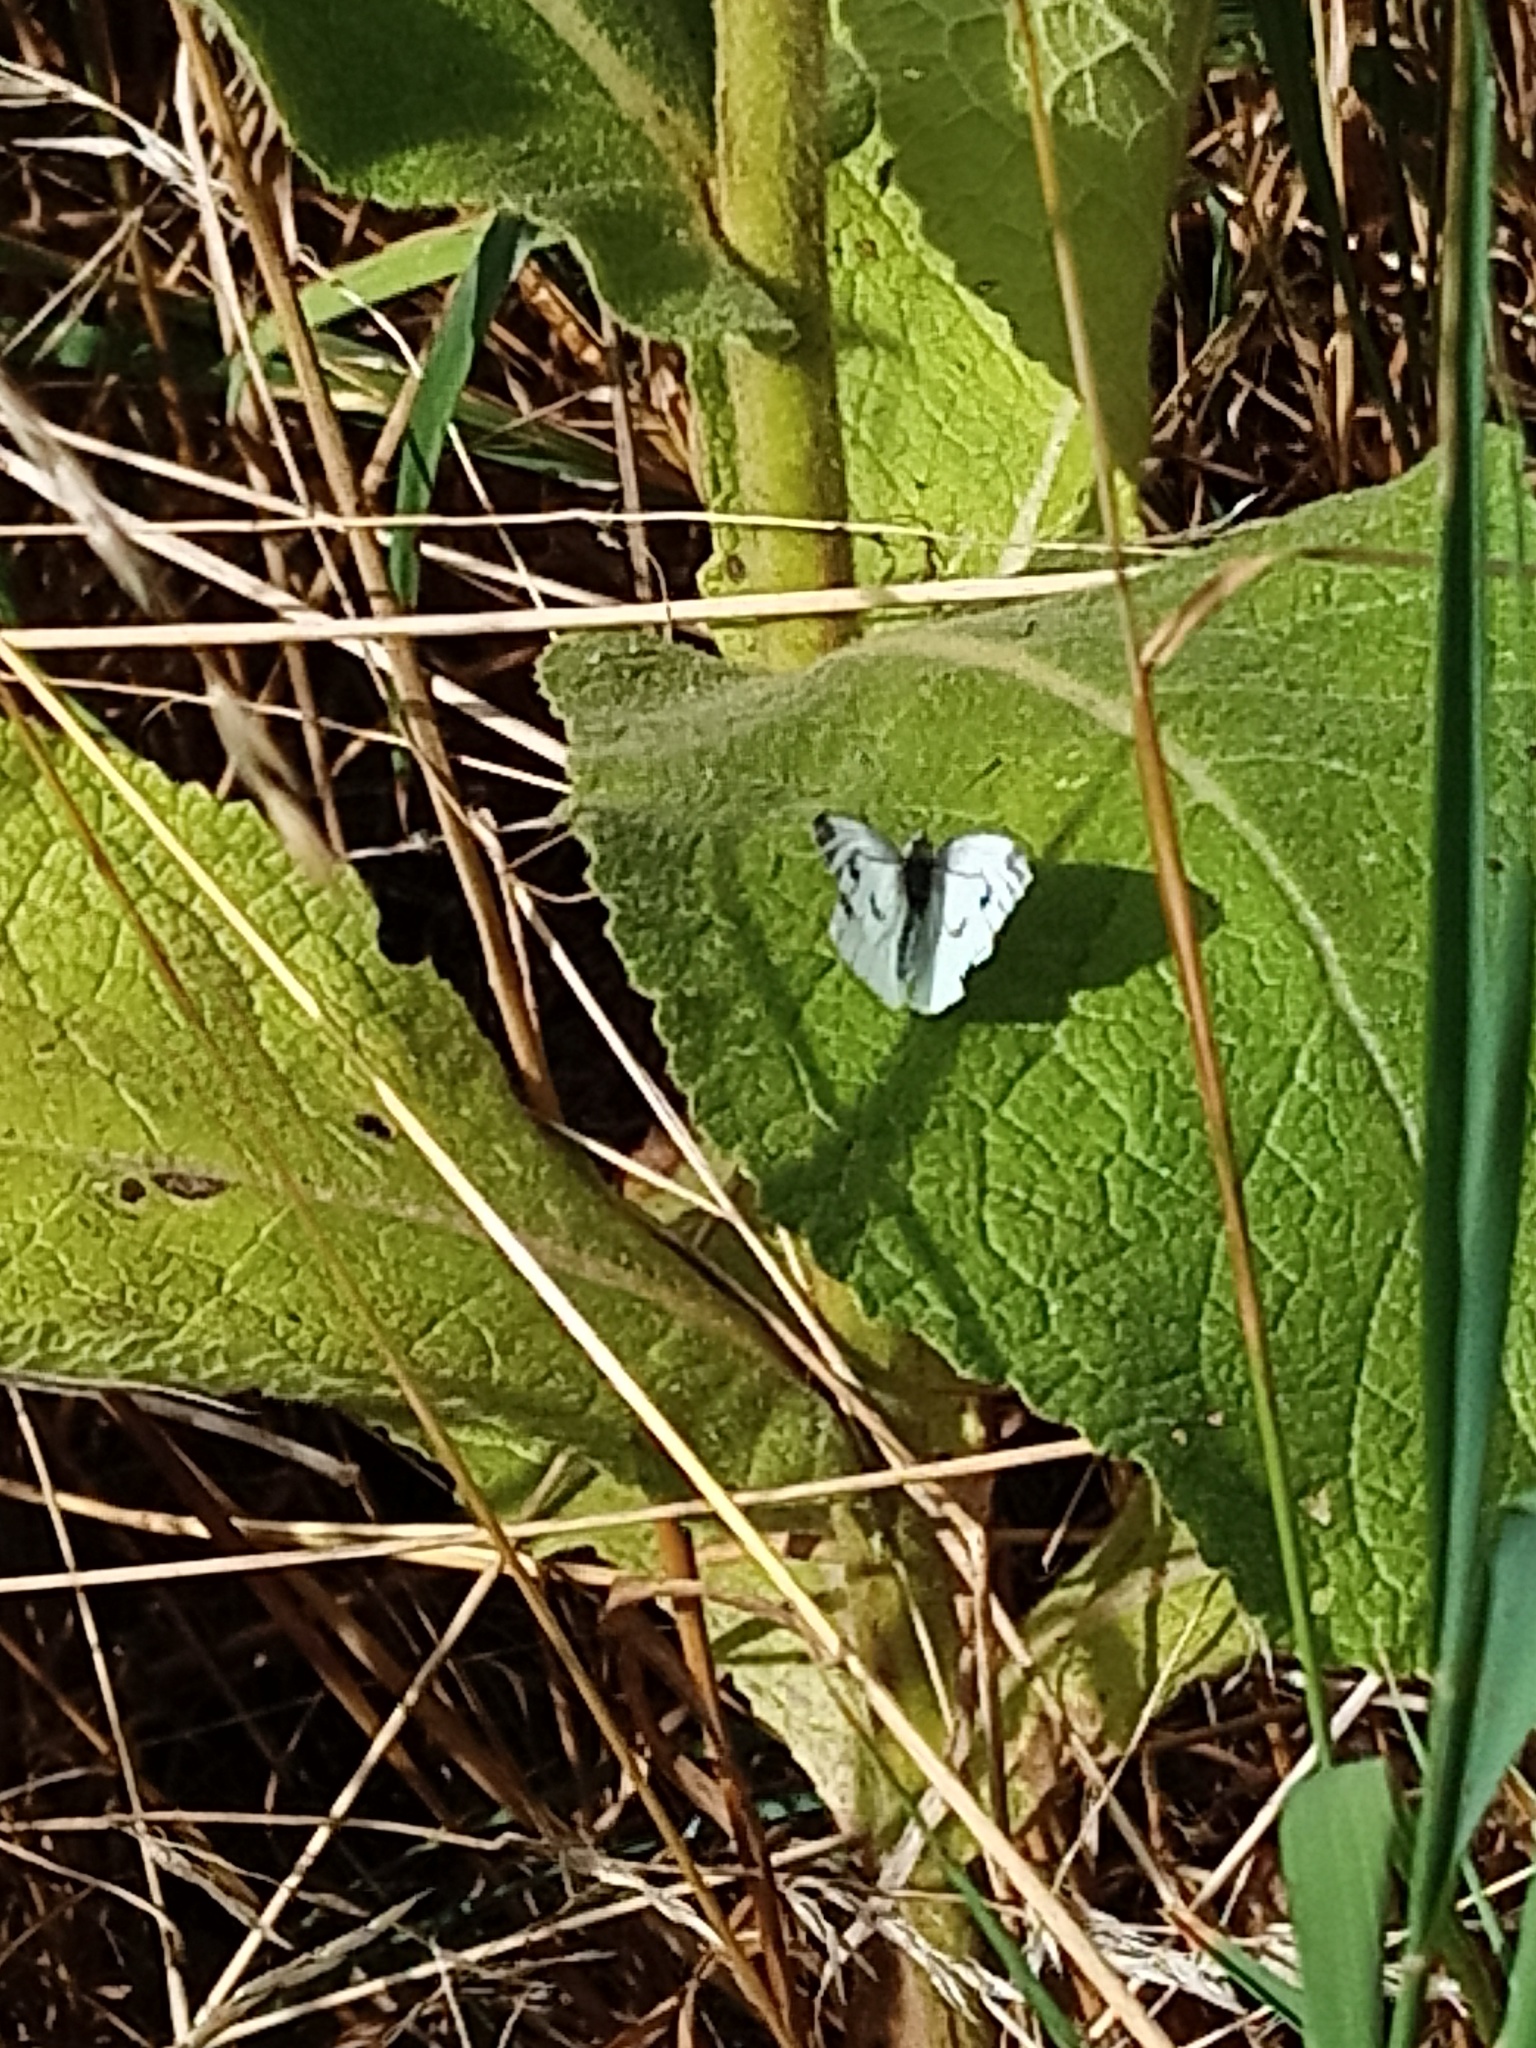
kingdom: Animalia
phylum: Arthropoda
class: Insecta
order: Lepidoptera
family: Pieridae
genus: Pieris
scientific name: Pieris napi
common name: Green-veined white
